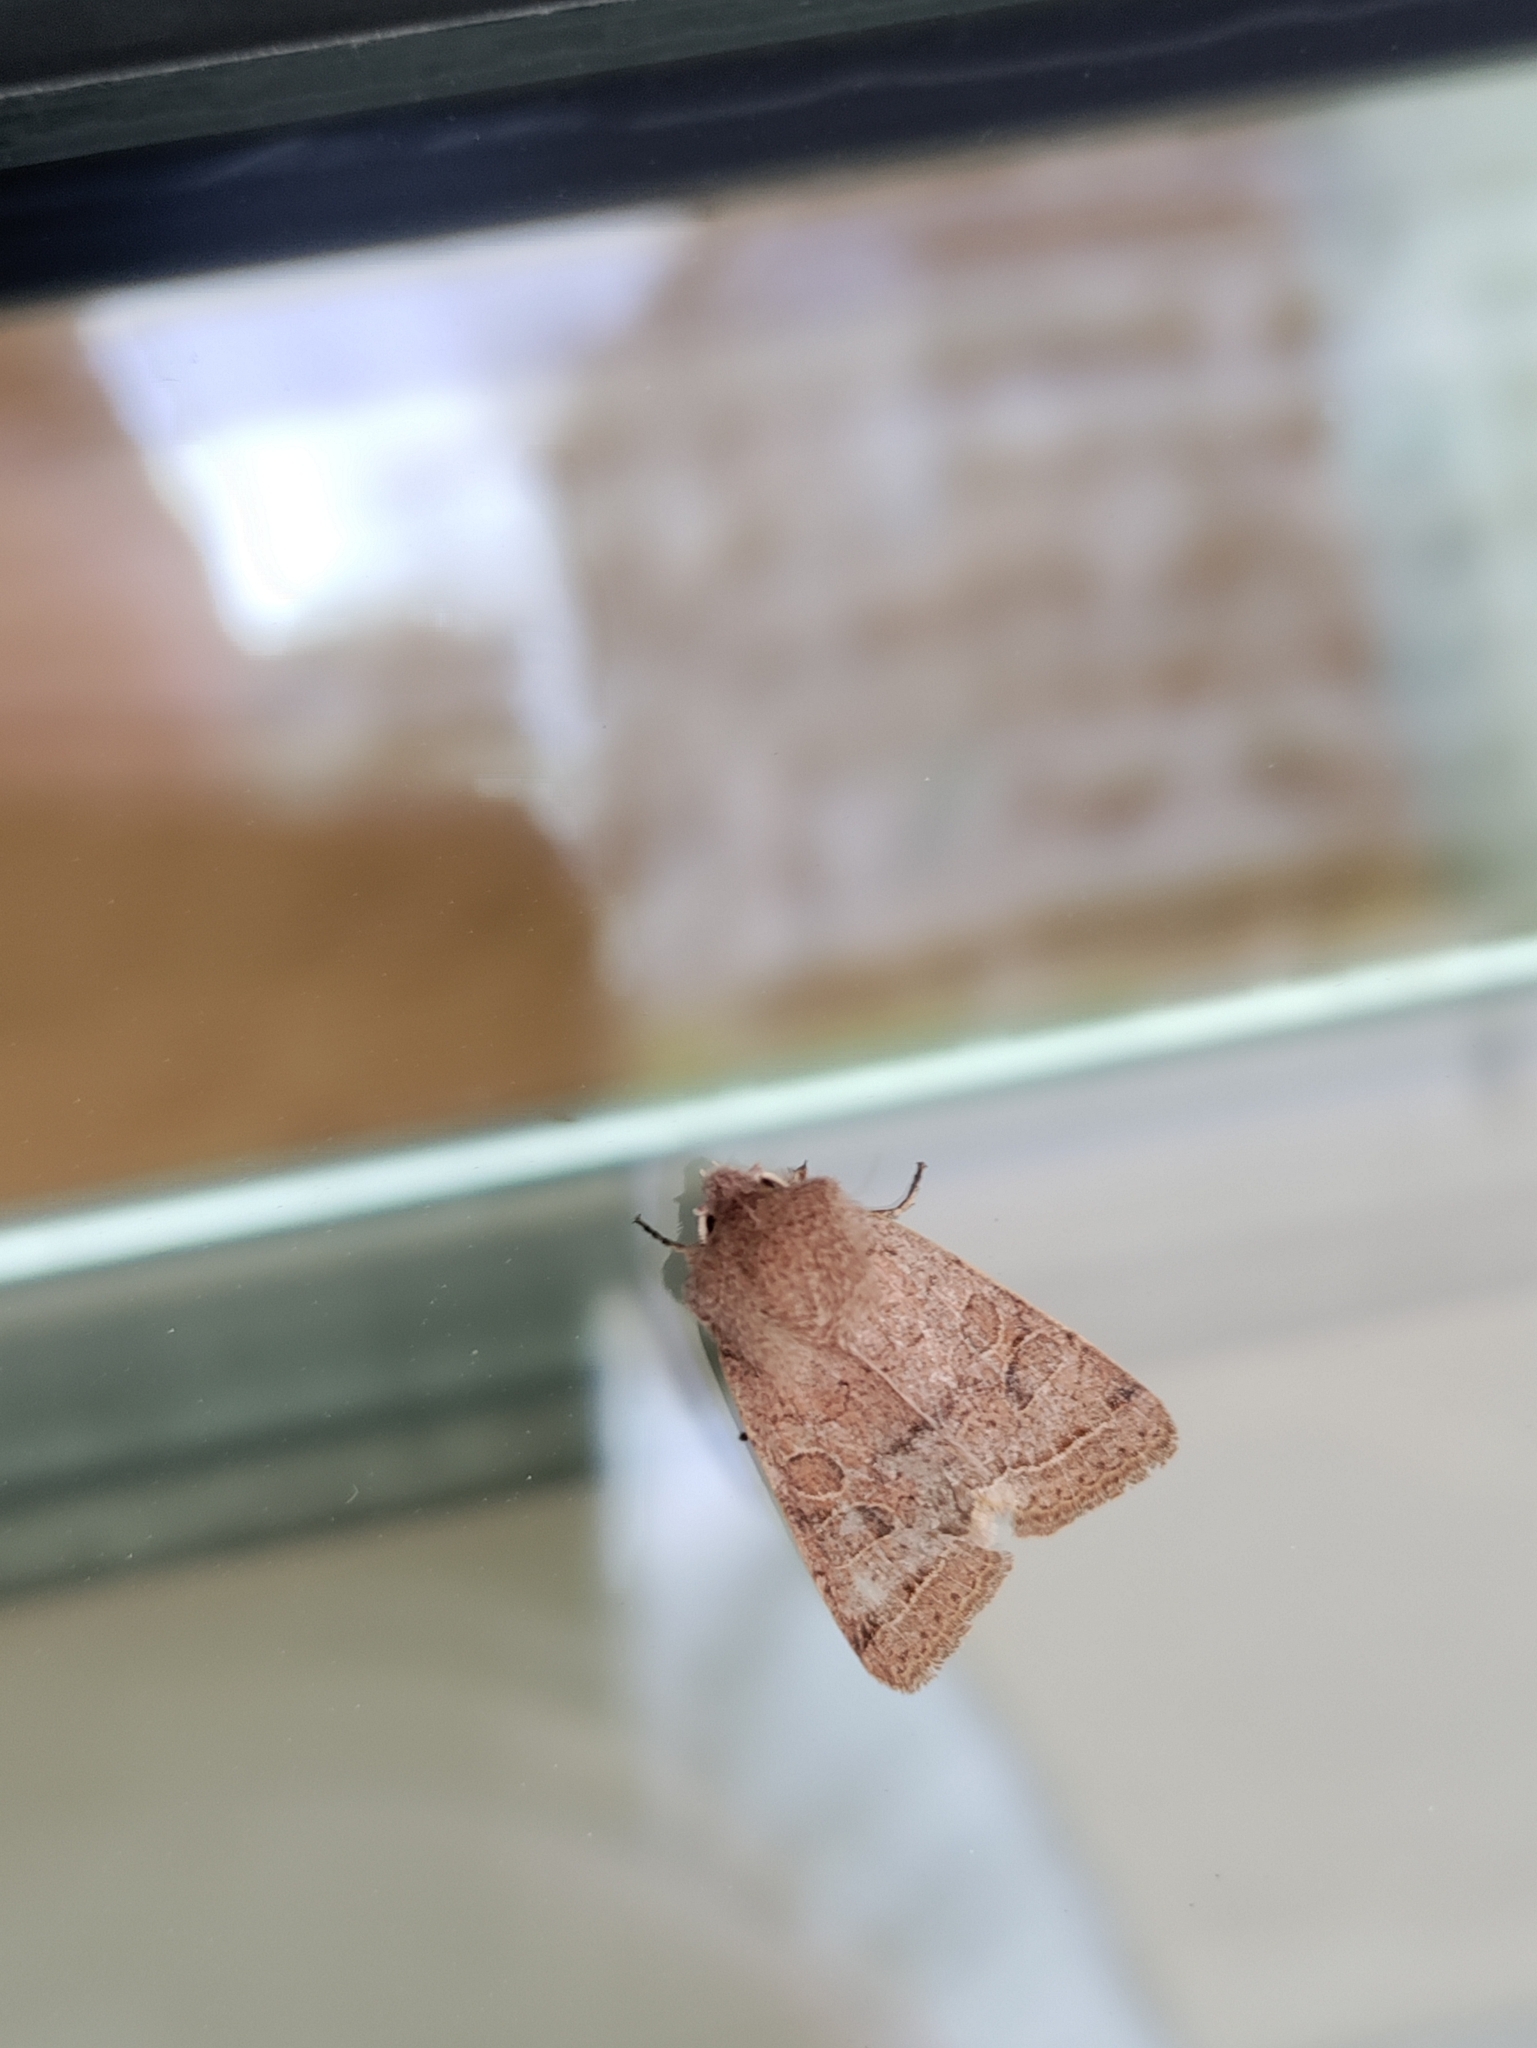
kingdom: Animalia
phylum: Arthropoda
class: Insecta
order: Lepidoptera
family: Noctuidae
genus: Orthosia
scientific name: Orthosia cerasi
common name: Common quaker
